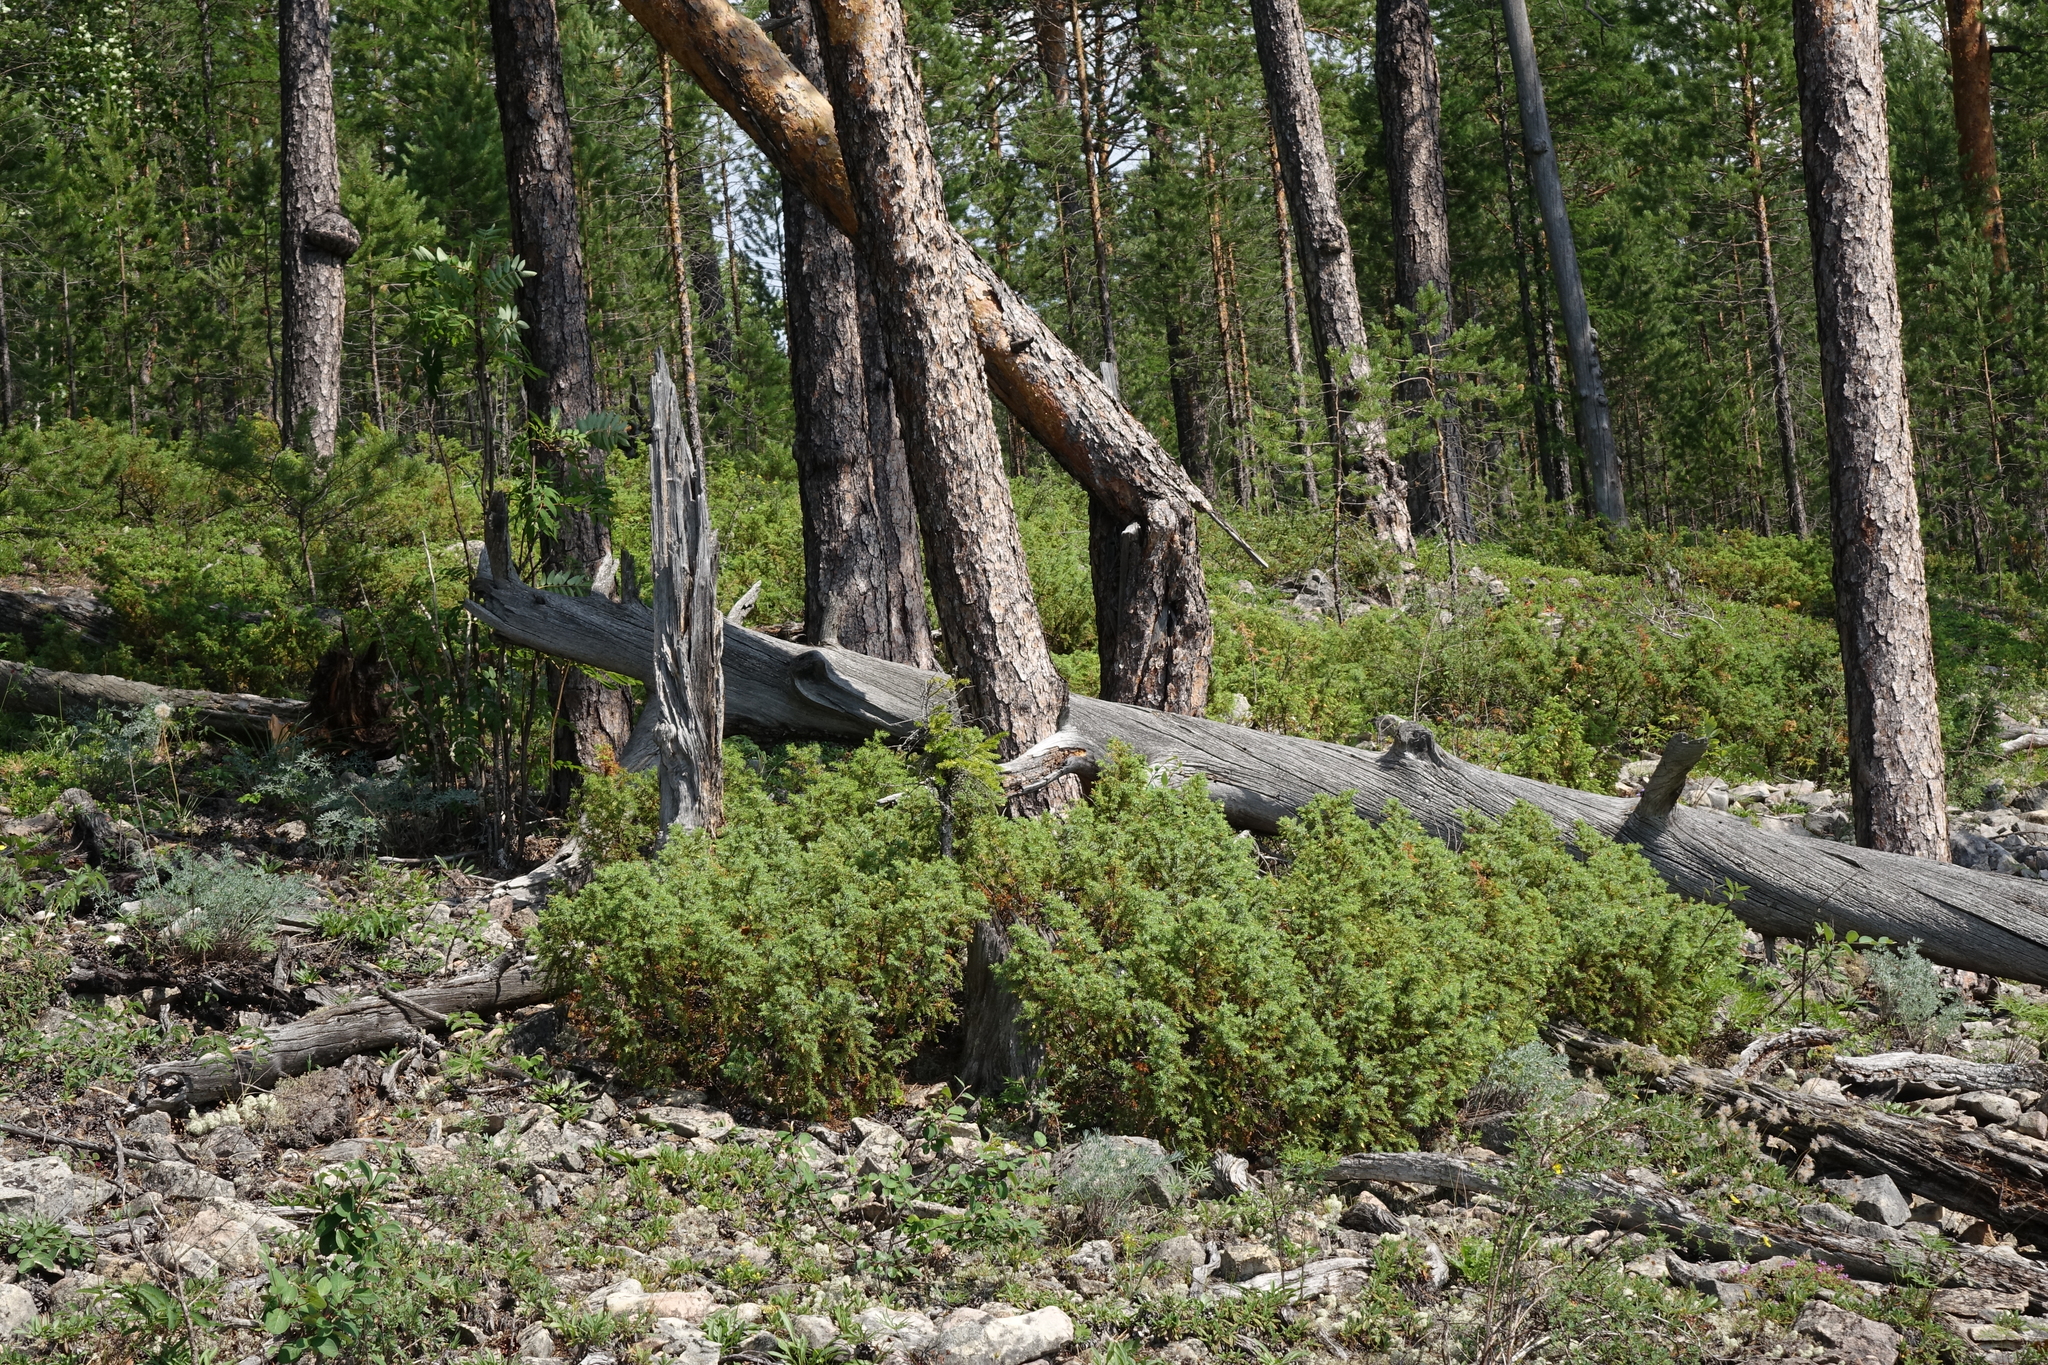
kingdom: Plantae
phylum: Tracheophyta
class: Pinopsida
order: Pinales
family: Cupressaceae
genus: Juniperus
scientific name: Juniperus communis
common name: Common juniper
